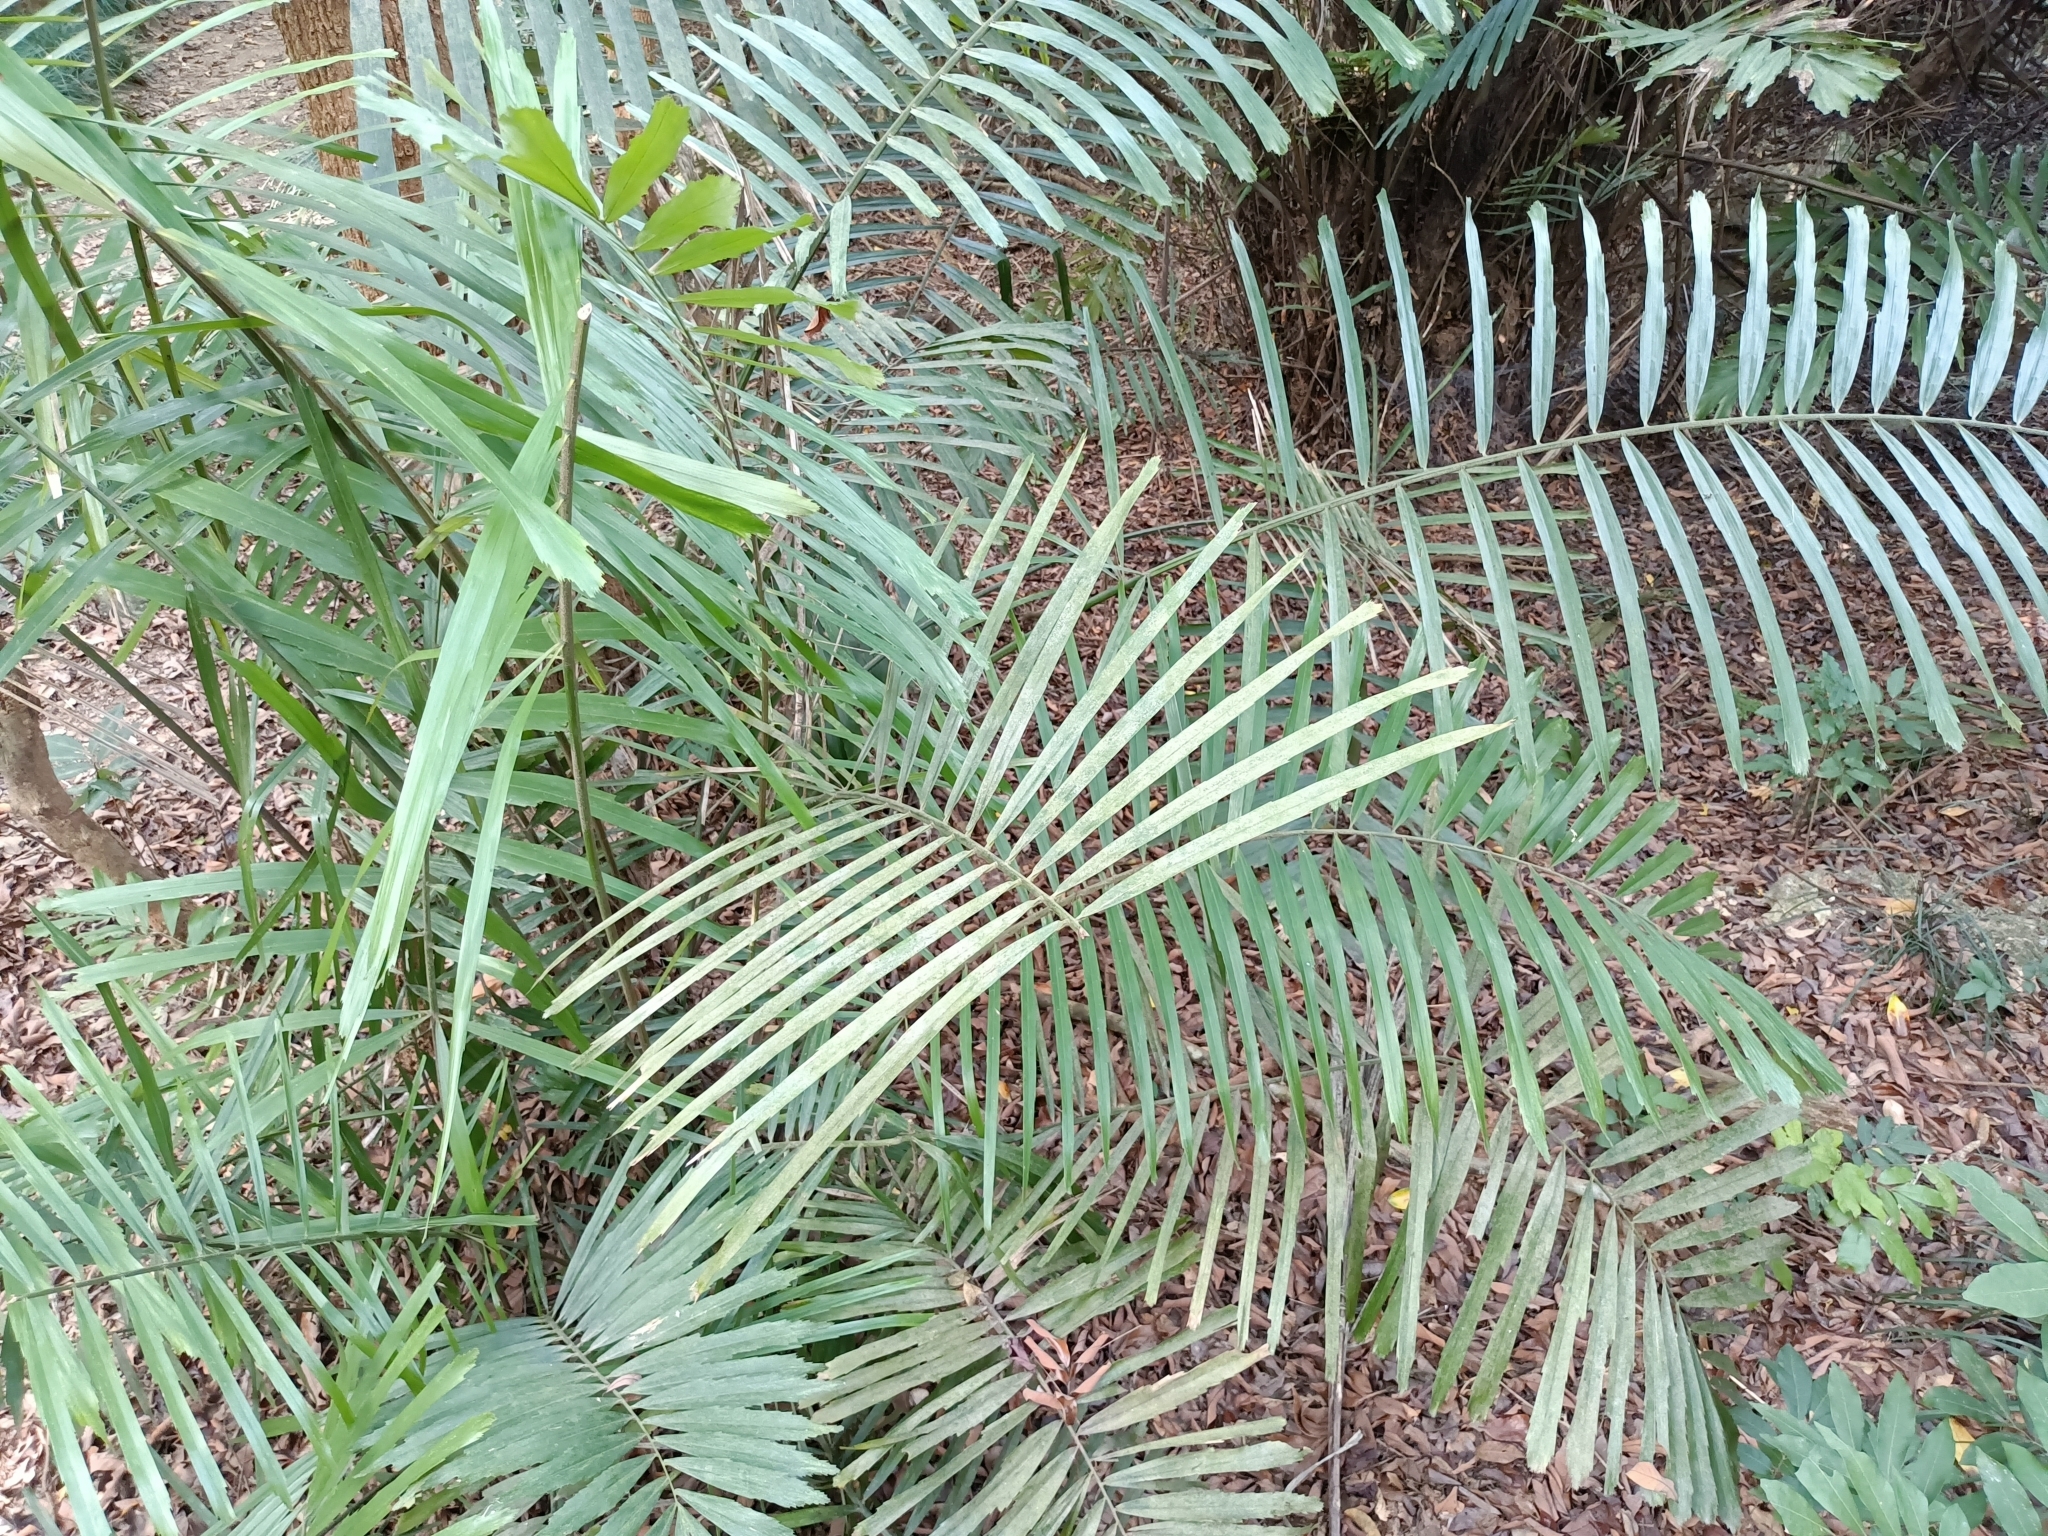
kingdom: Plantae
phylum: Tracheophyta
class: Liliopsida
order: Arecales
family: Arecaceae
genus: Arenga
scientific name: Arenga engleri
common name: Formosan sugar palm
